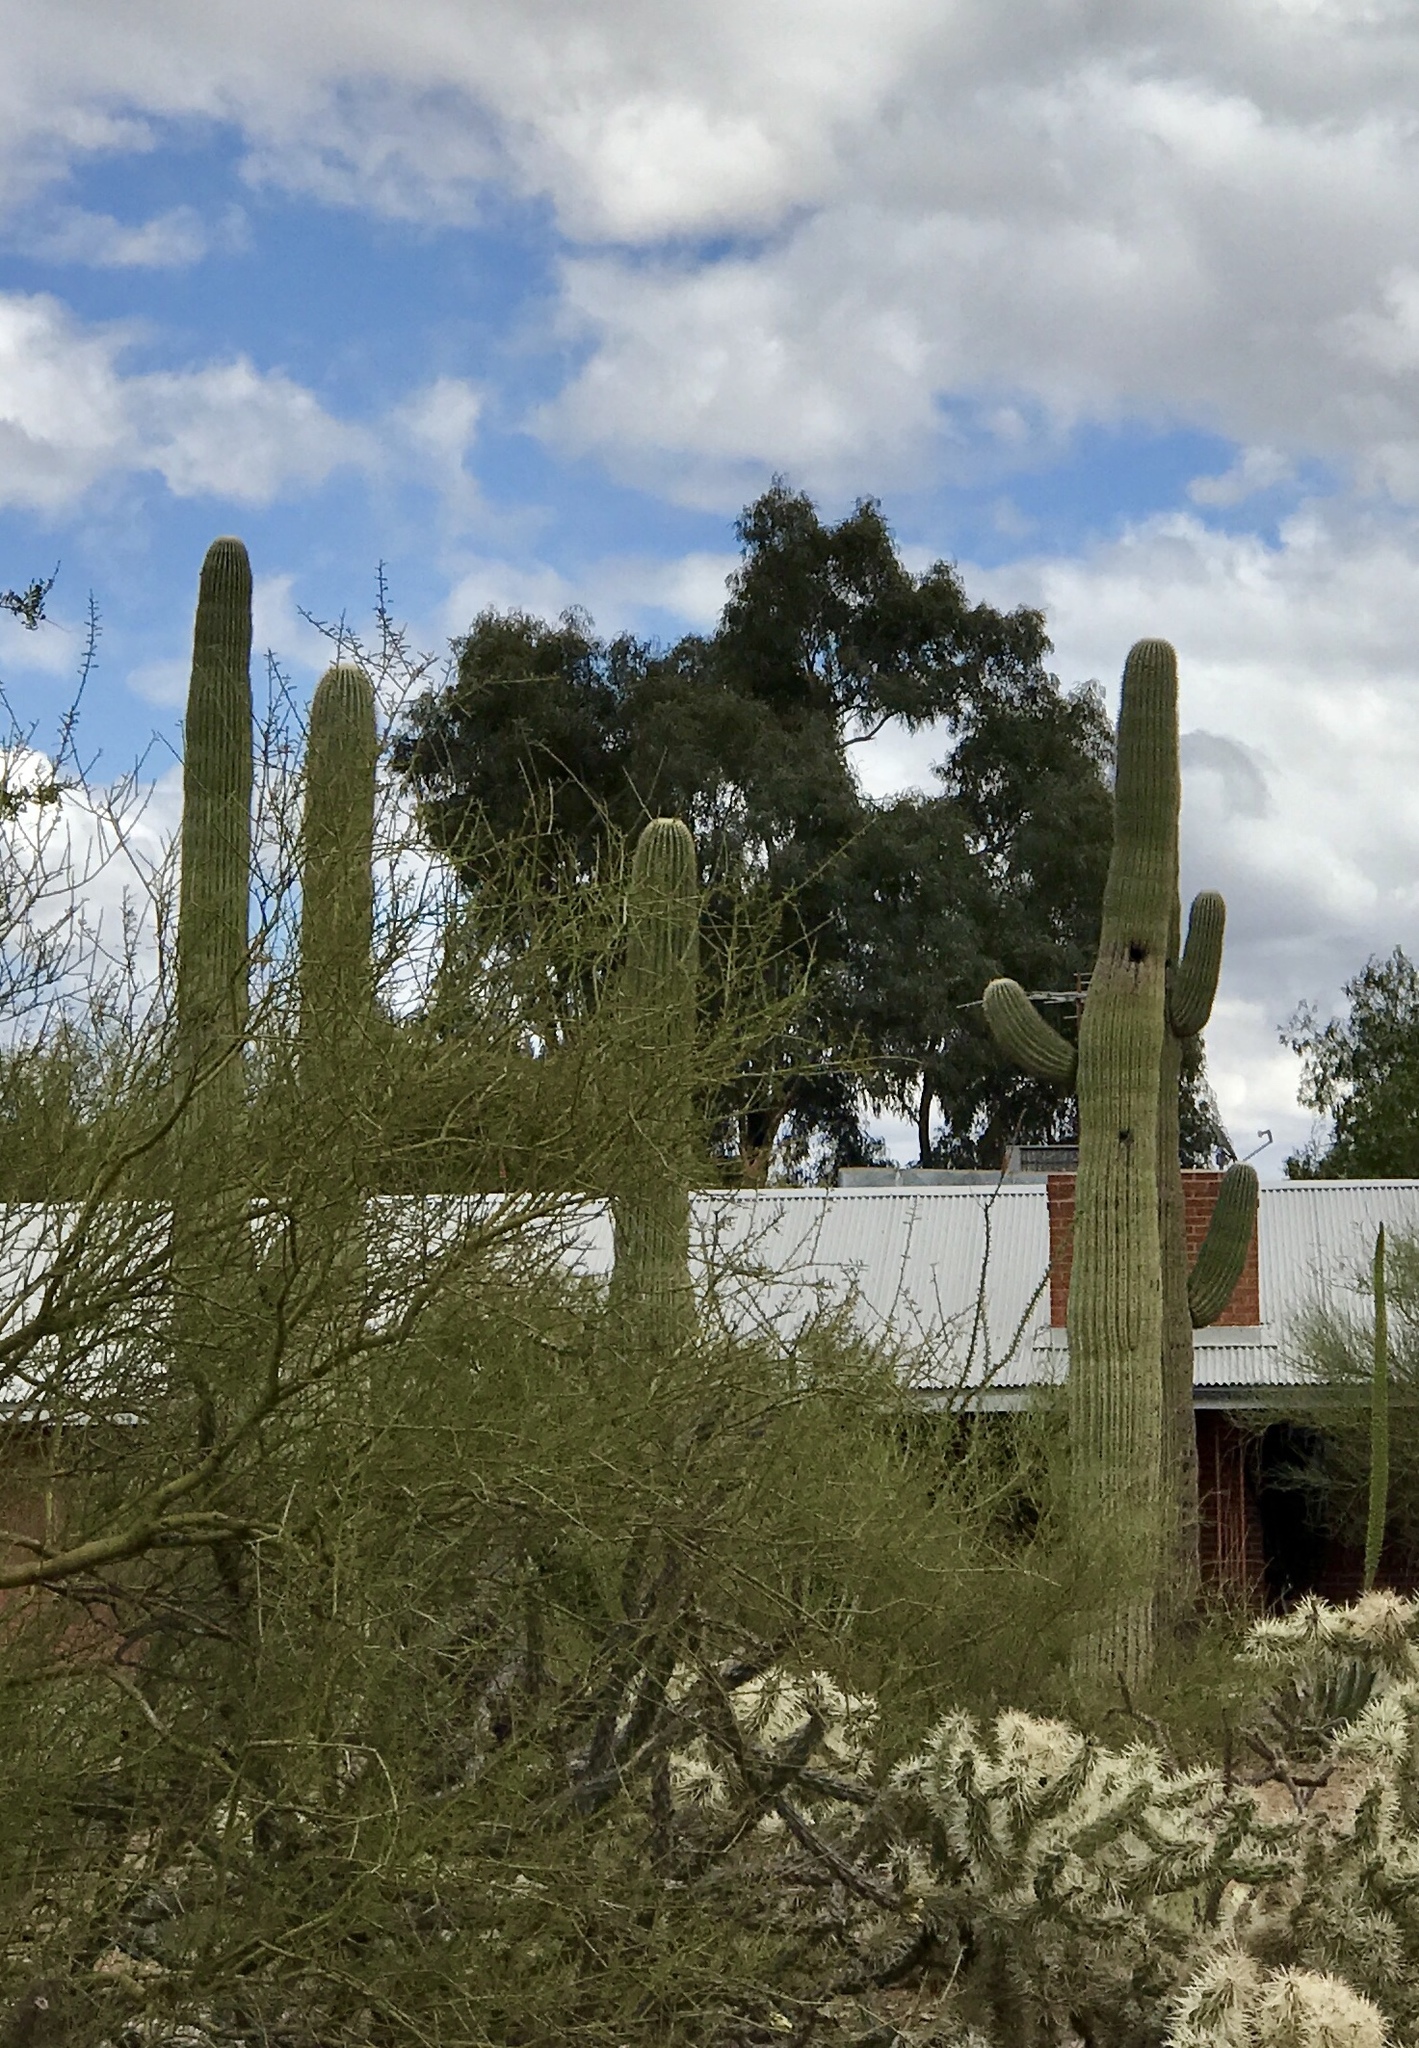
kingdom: Plantae
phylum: Tracheophyta
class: Magnoliopsida
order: Caryophyllales
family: Cactaceae
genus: Carnegiea
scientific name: Carnegiea gigantea
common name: Saguaro
